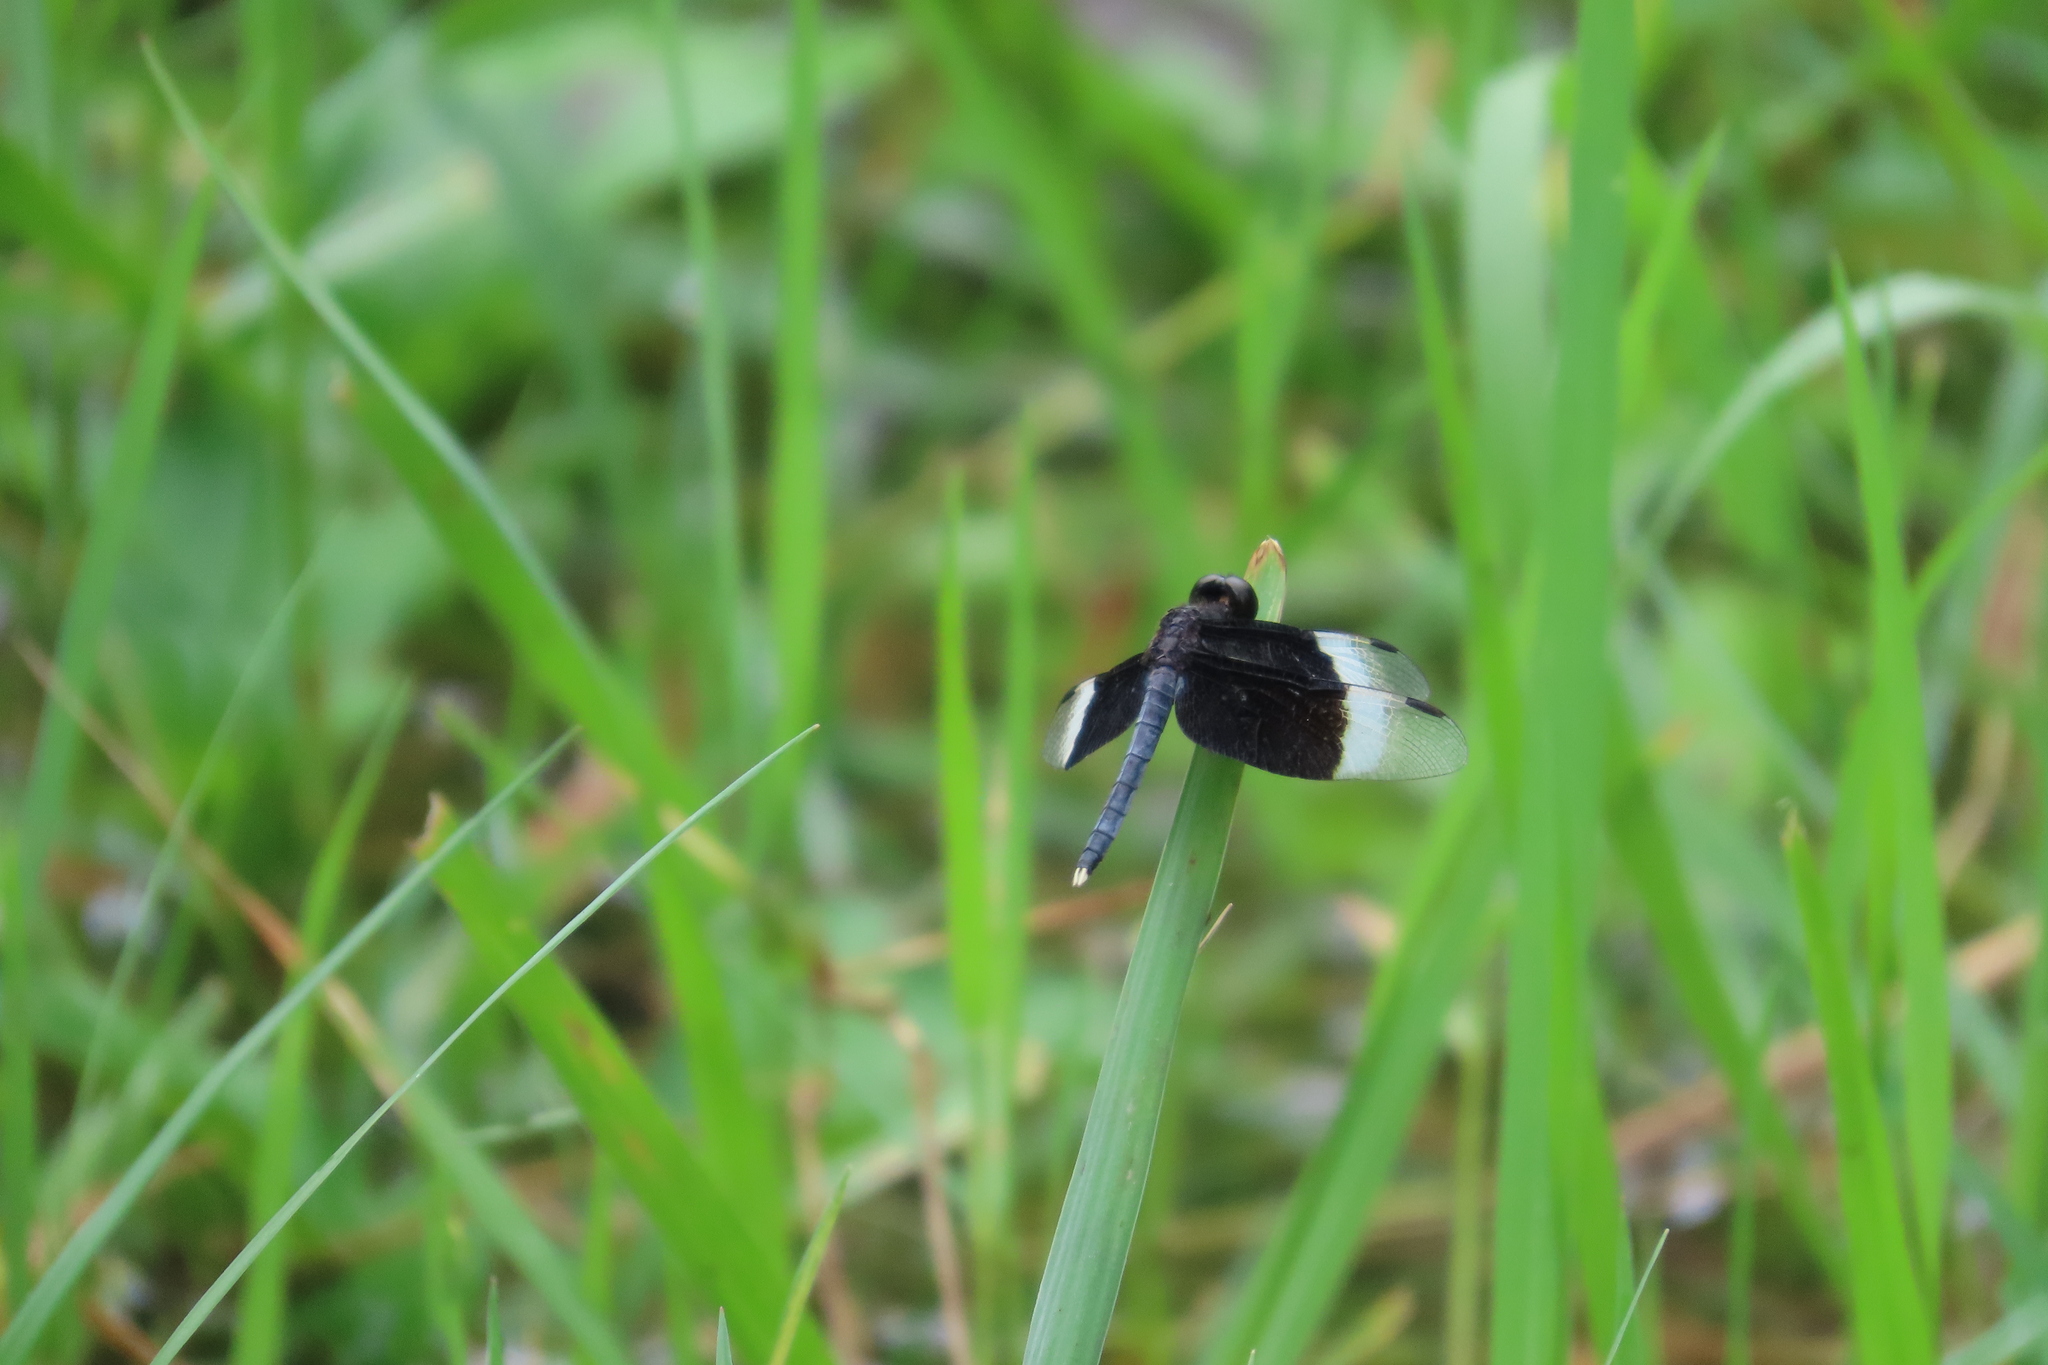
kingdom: Animalia
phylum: Arthropoda
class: Insecta
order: Odonata
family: Libellulidae
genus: Neurothemis
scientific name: Neurothemis tullia
